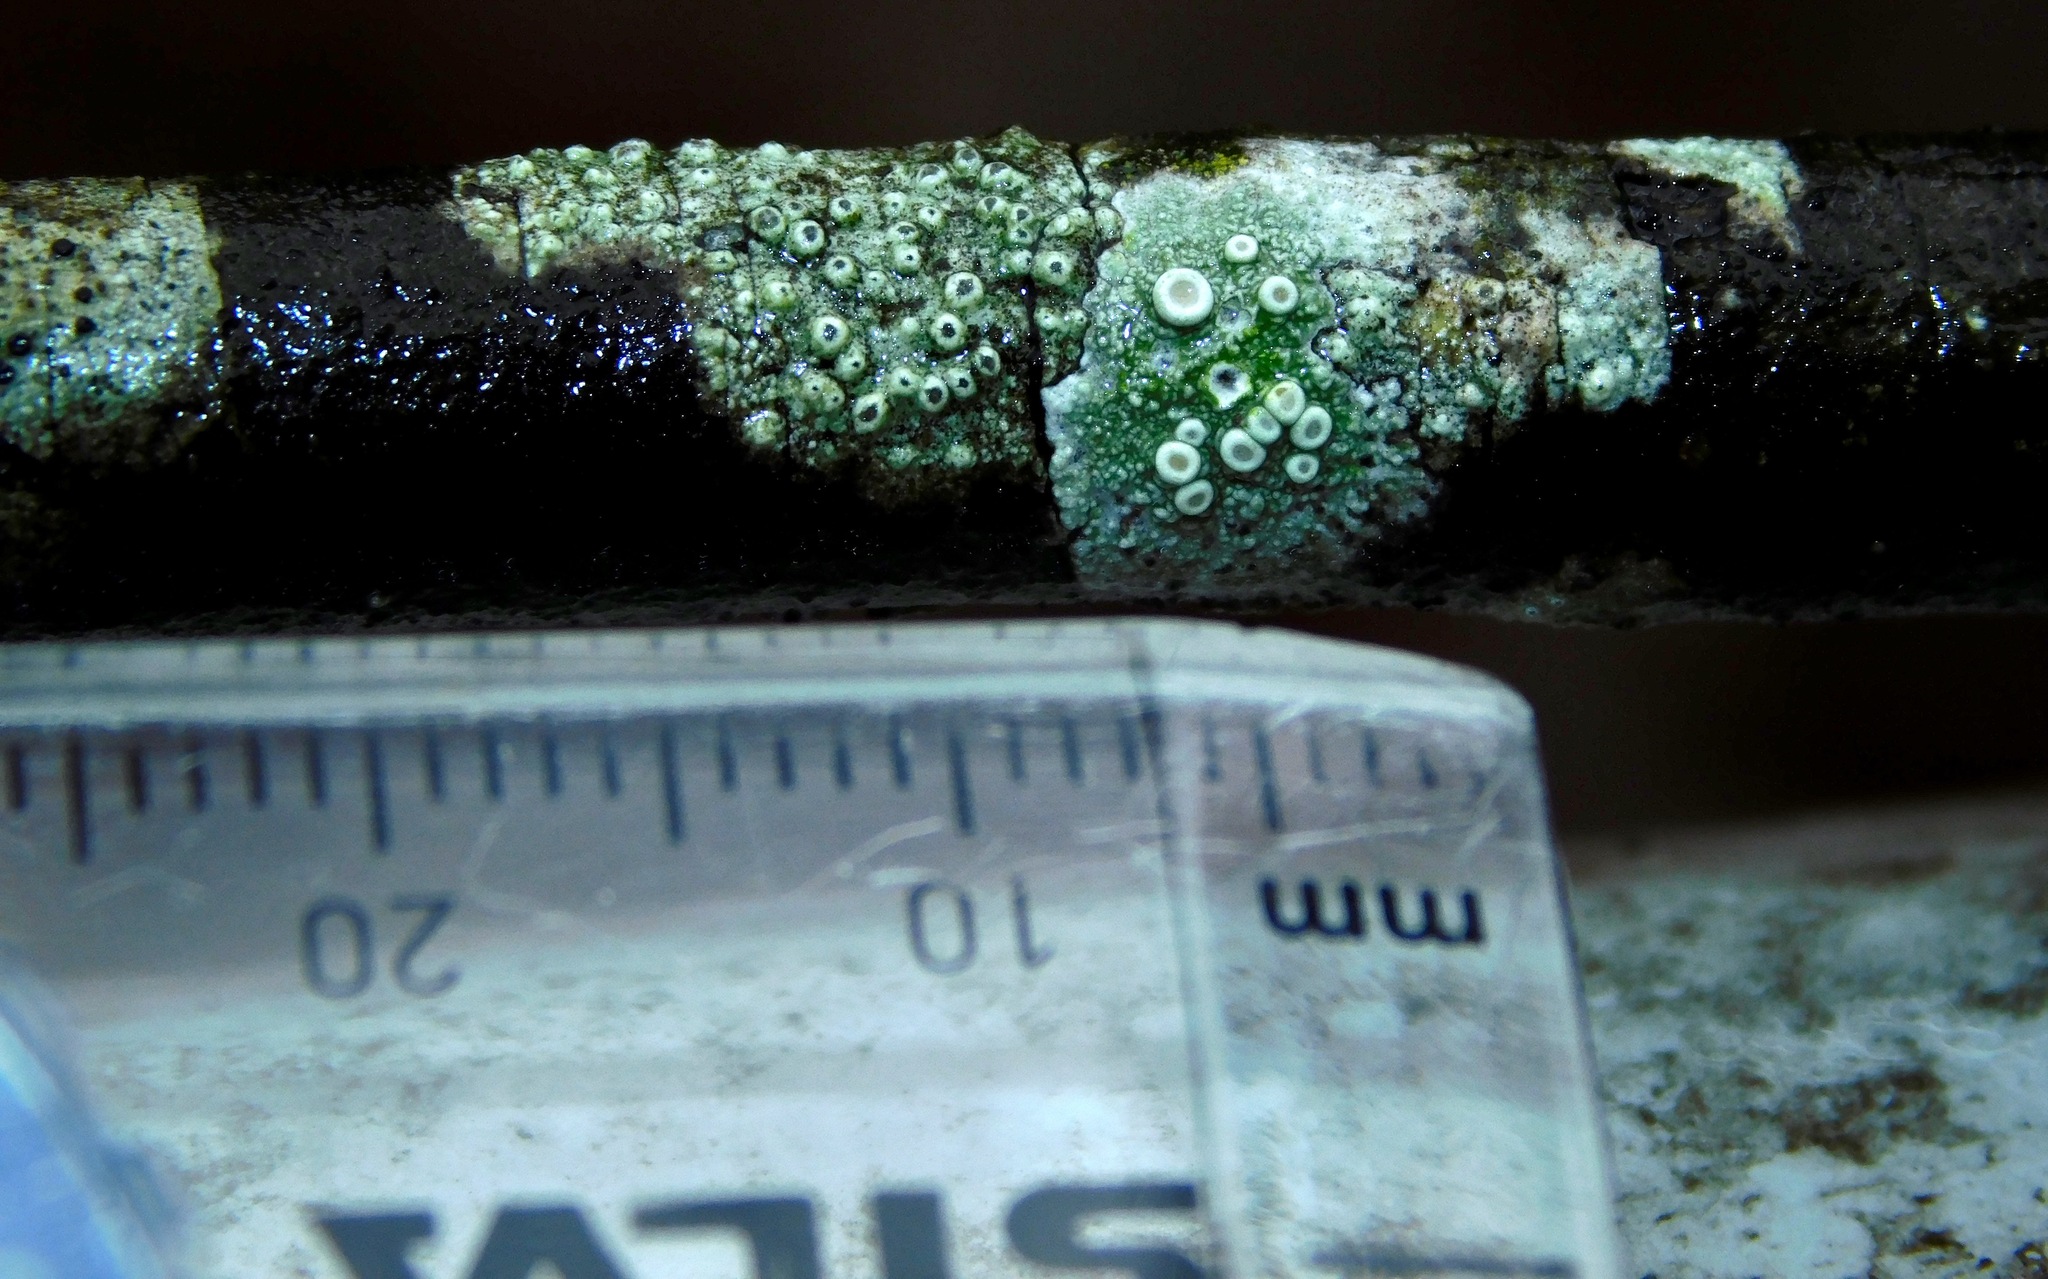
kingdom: Fungi
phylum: Ascomycota
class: Lecanoromycetes
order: Pertusariales
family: Ochrolechiaceae
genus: Ochrolechia
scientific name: Ochrolechia africana
